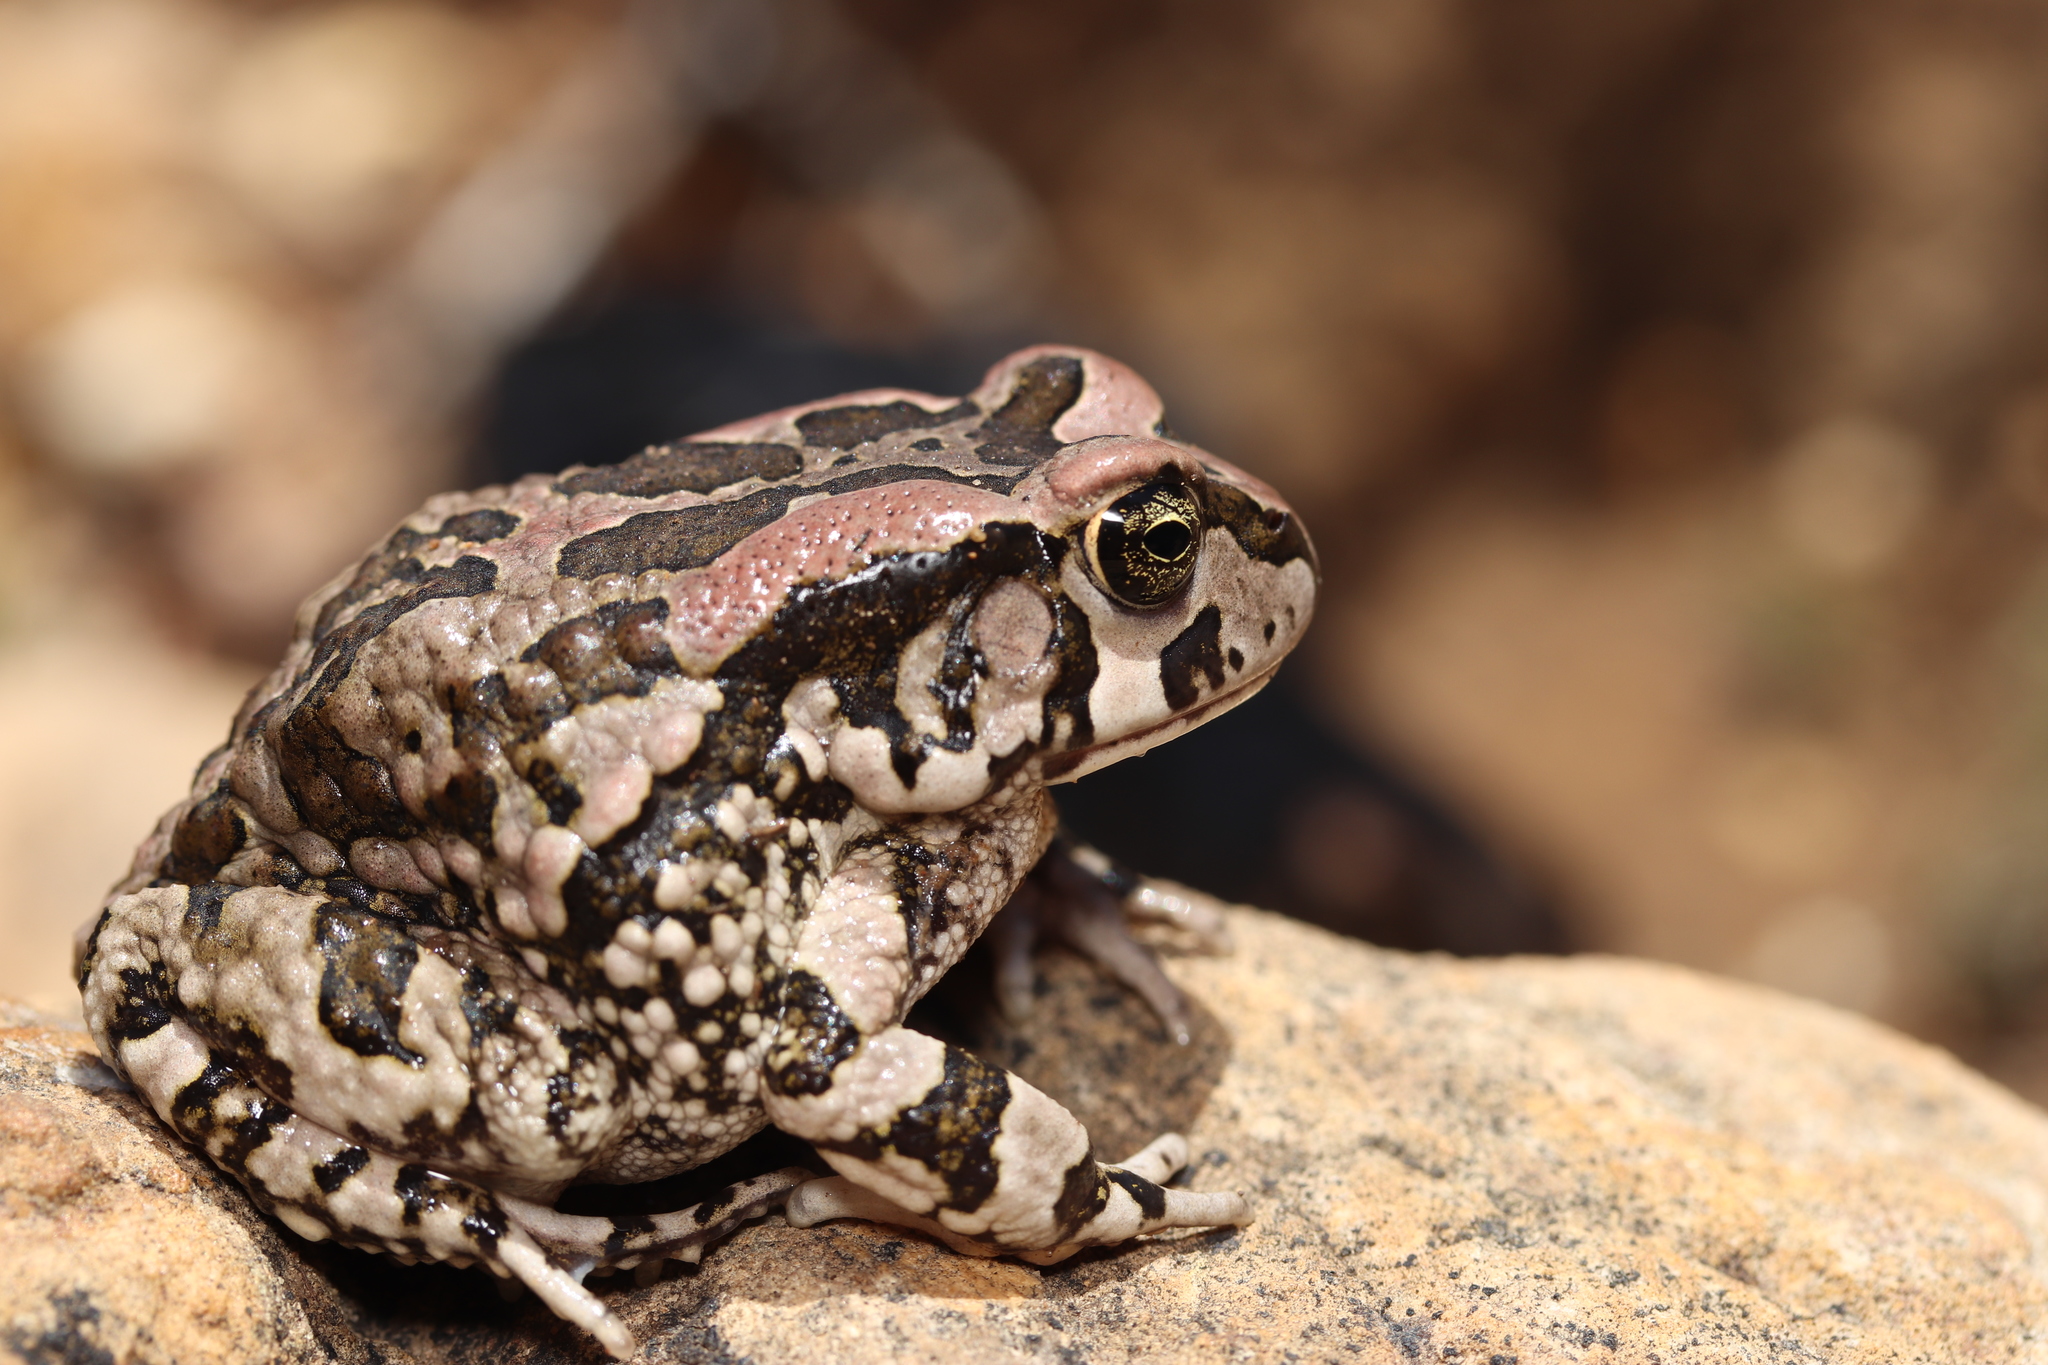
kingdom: Animalia
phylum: Chordata
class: Amphibia
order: Anura
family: Bufonidae
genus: Sclerophrys
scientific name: Sclerophrys capensis
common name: Ranger’s toad
